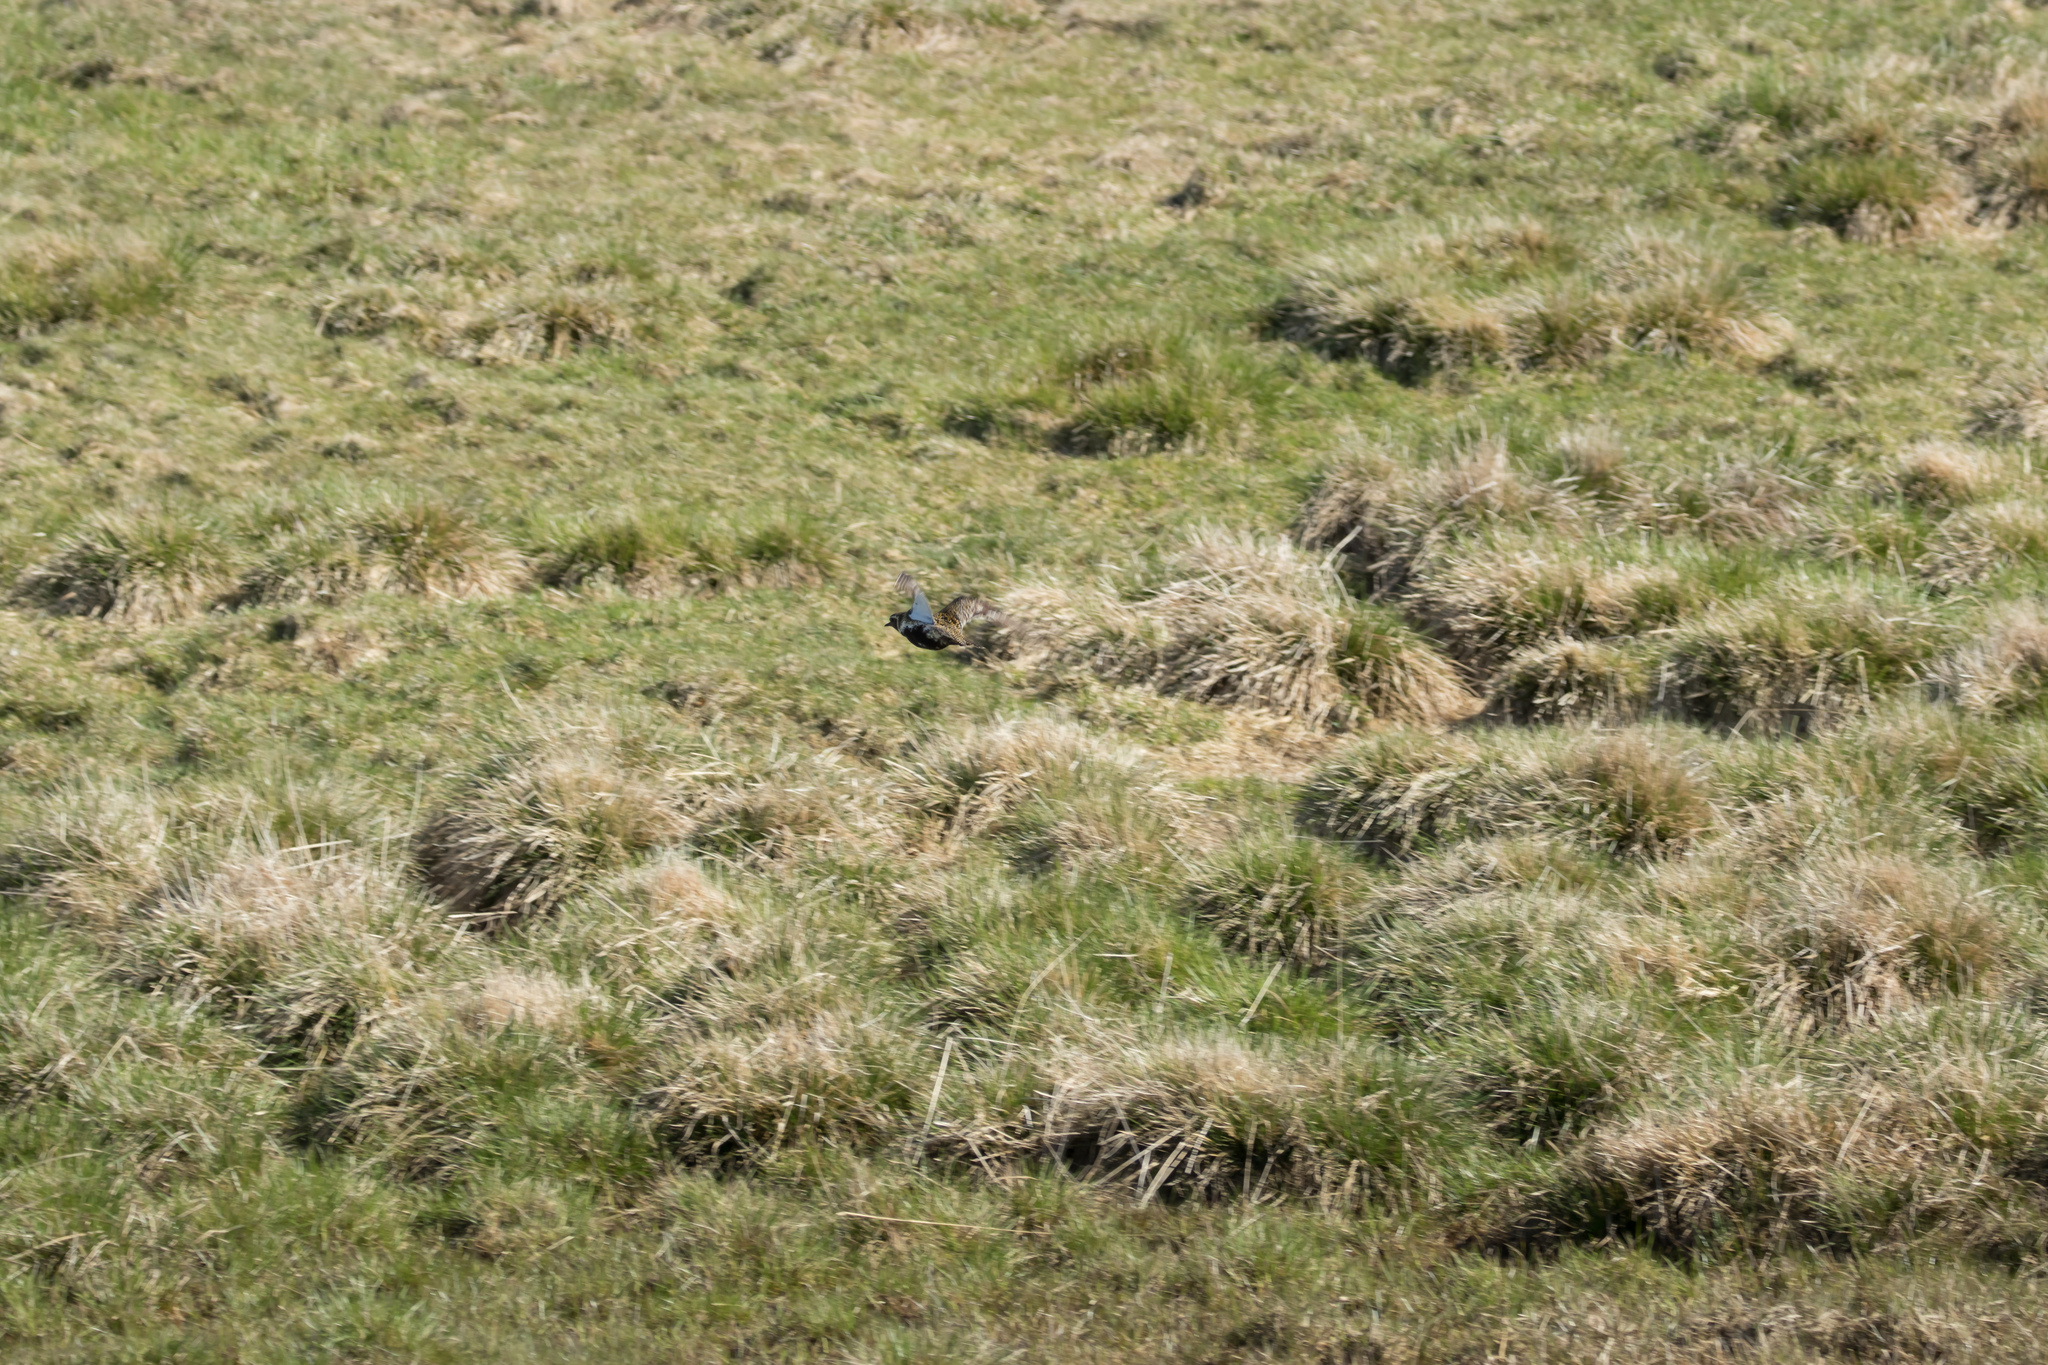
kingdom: Animalia
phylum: Chordata
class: Aves
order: Charadriiformes
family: Charadriidae
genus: Pluvialis
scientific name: Pluvialis apricaria
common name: European golden plover
